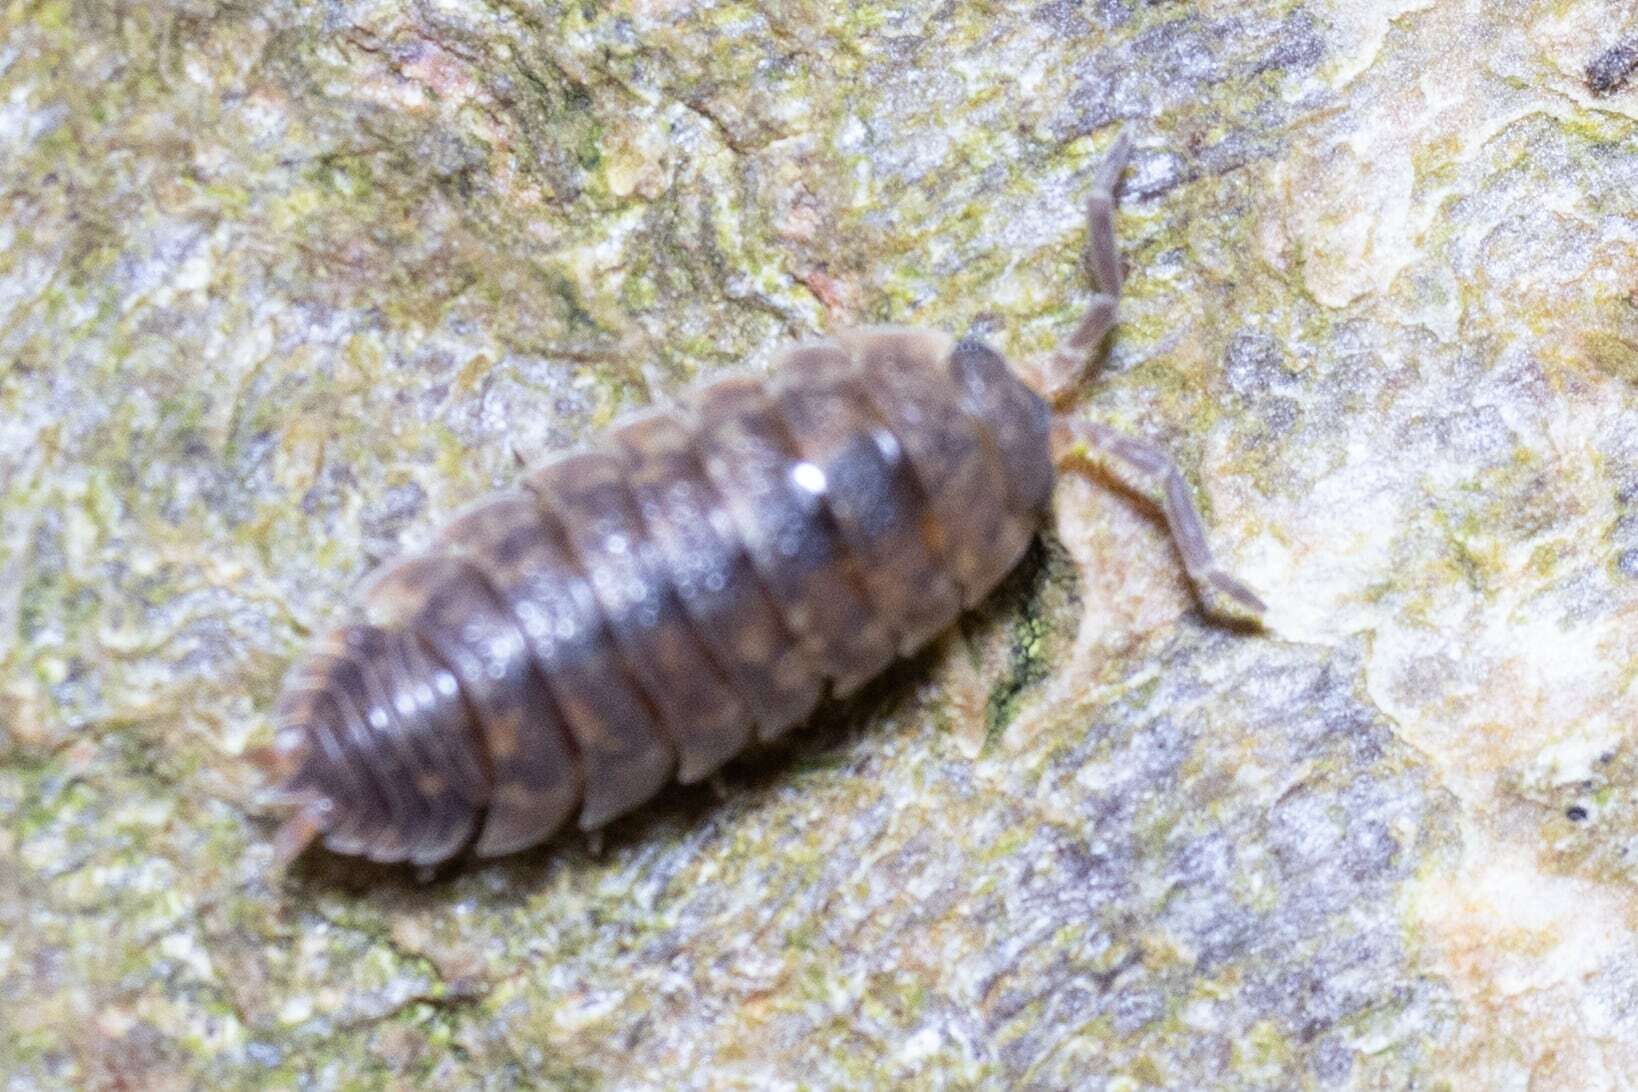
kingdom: Animalia
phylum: Arthropoda
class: Malacostraca
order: Isopoda
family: Porcellionidae
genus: Porcellio
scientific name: Porcellio scaber
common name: Common rough woodlouse
